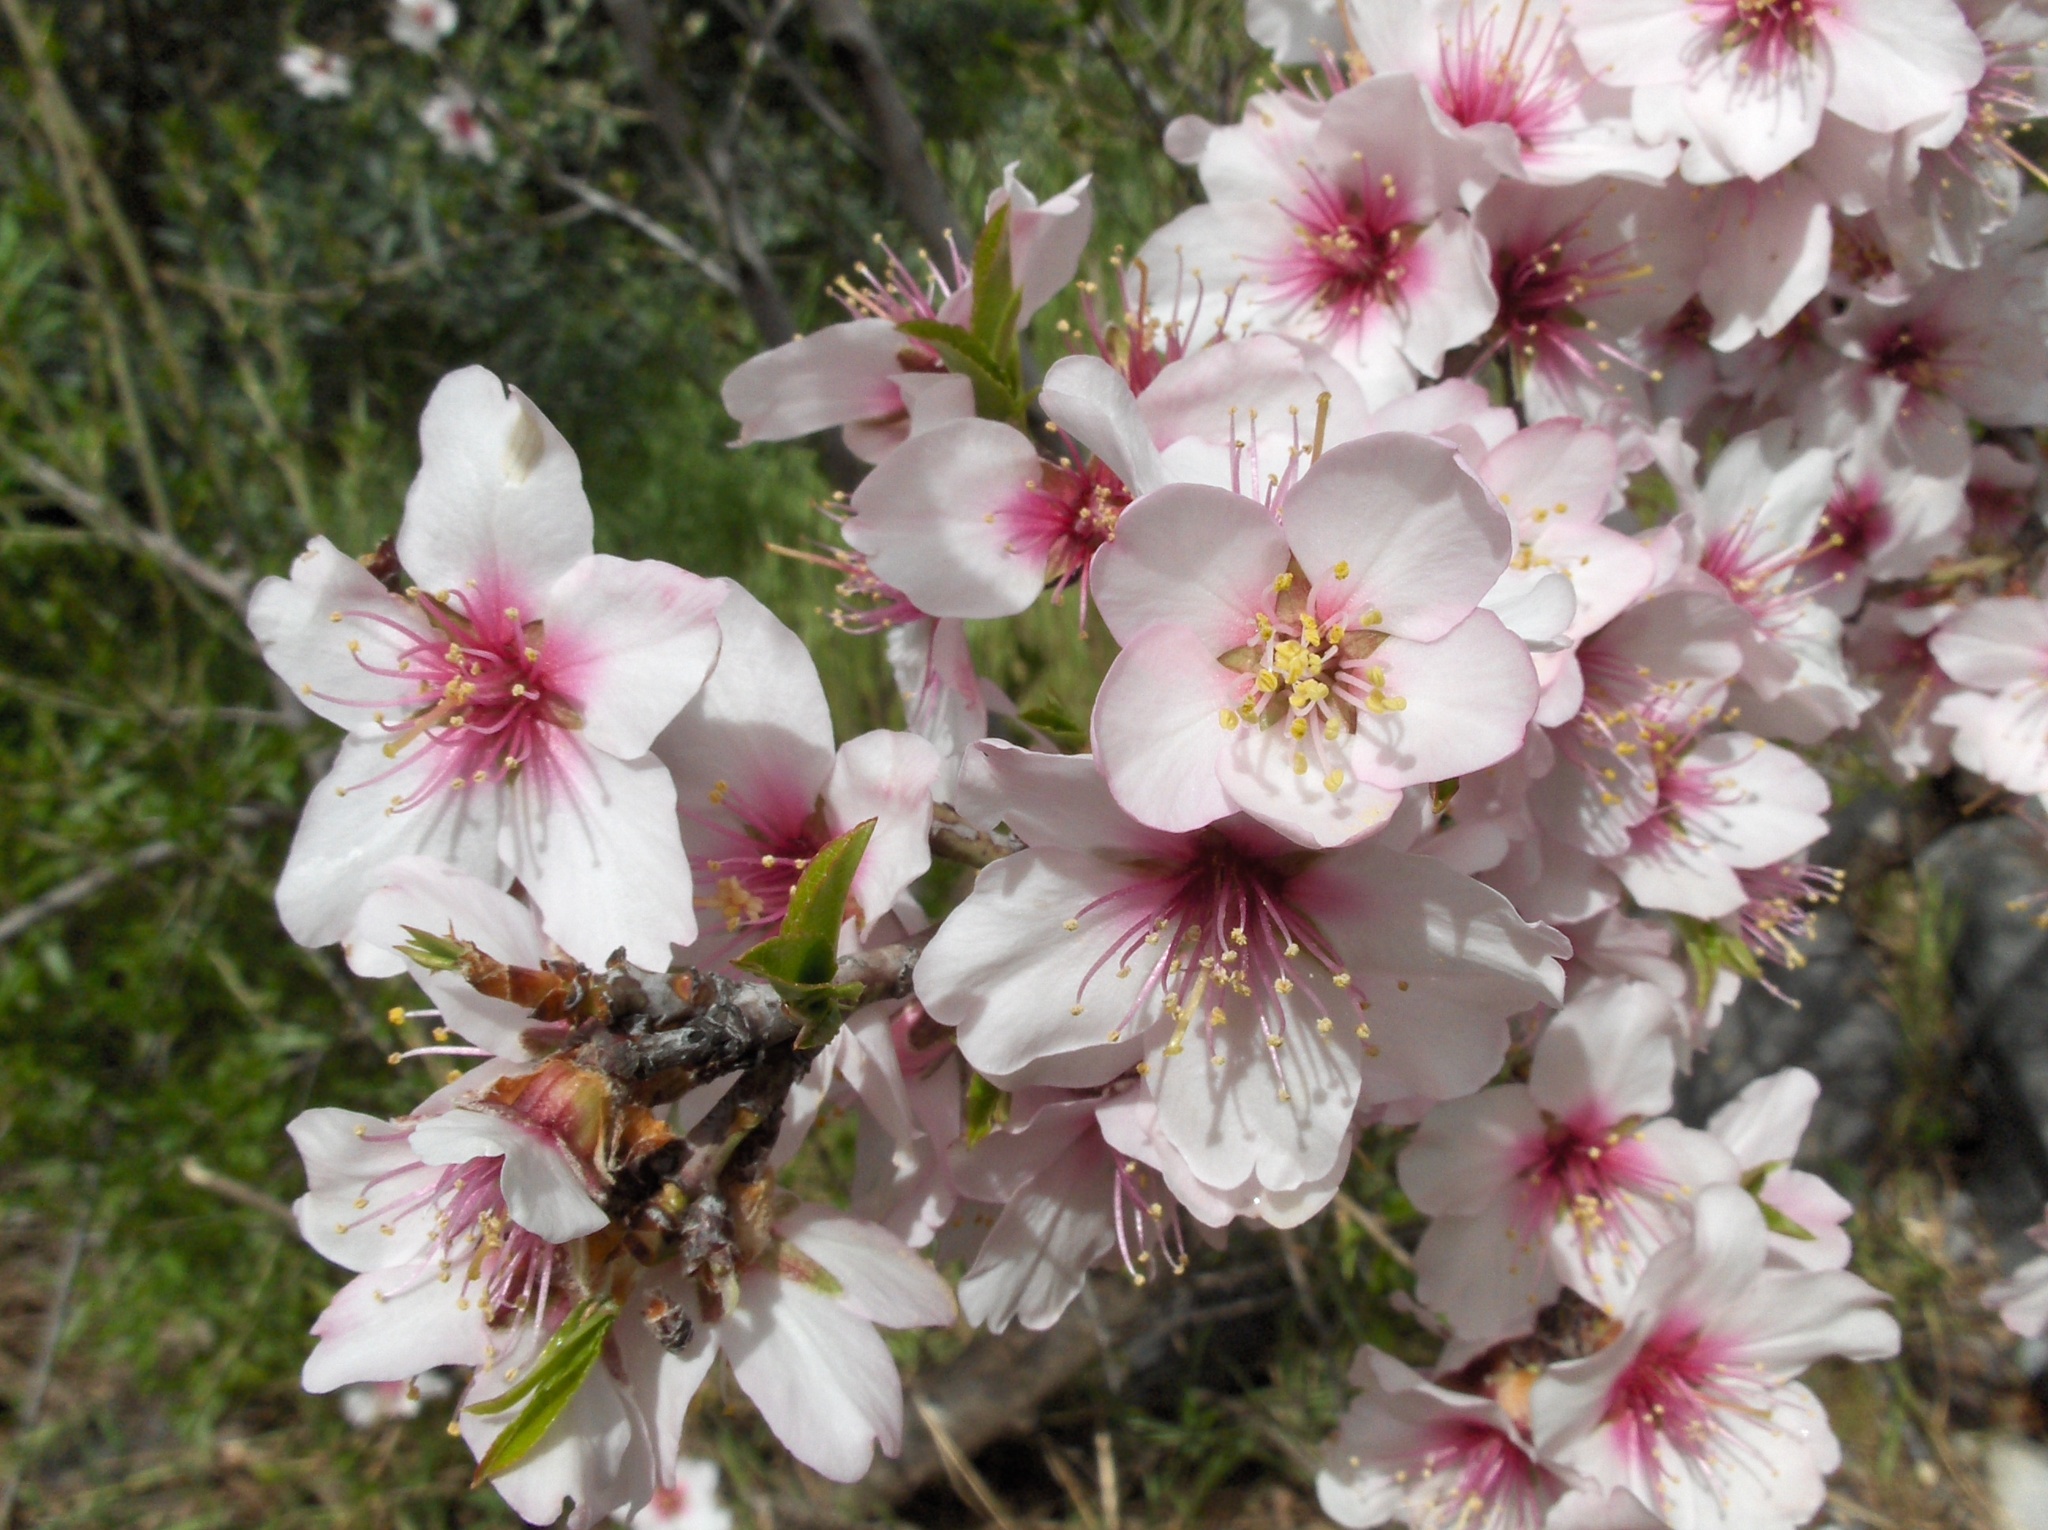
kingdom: Plantae
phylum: Tracheophyta
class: Magnoliopsida
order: Rosales
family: Rosaceae
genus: Prunus
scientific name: Prunus amygdalus
